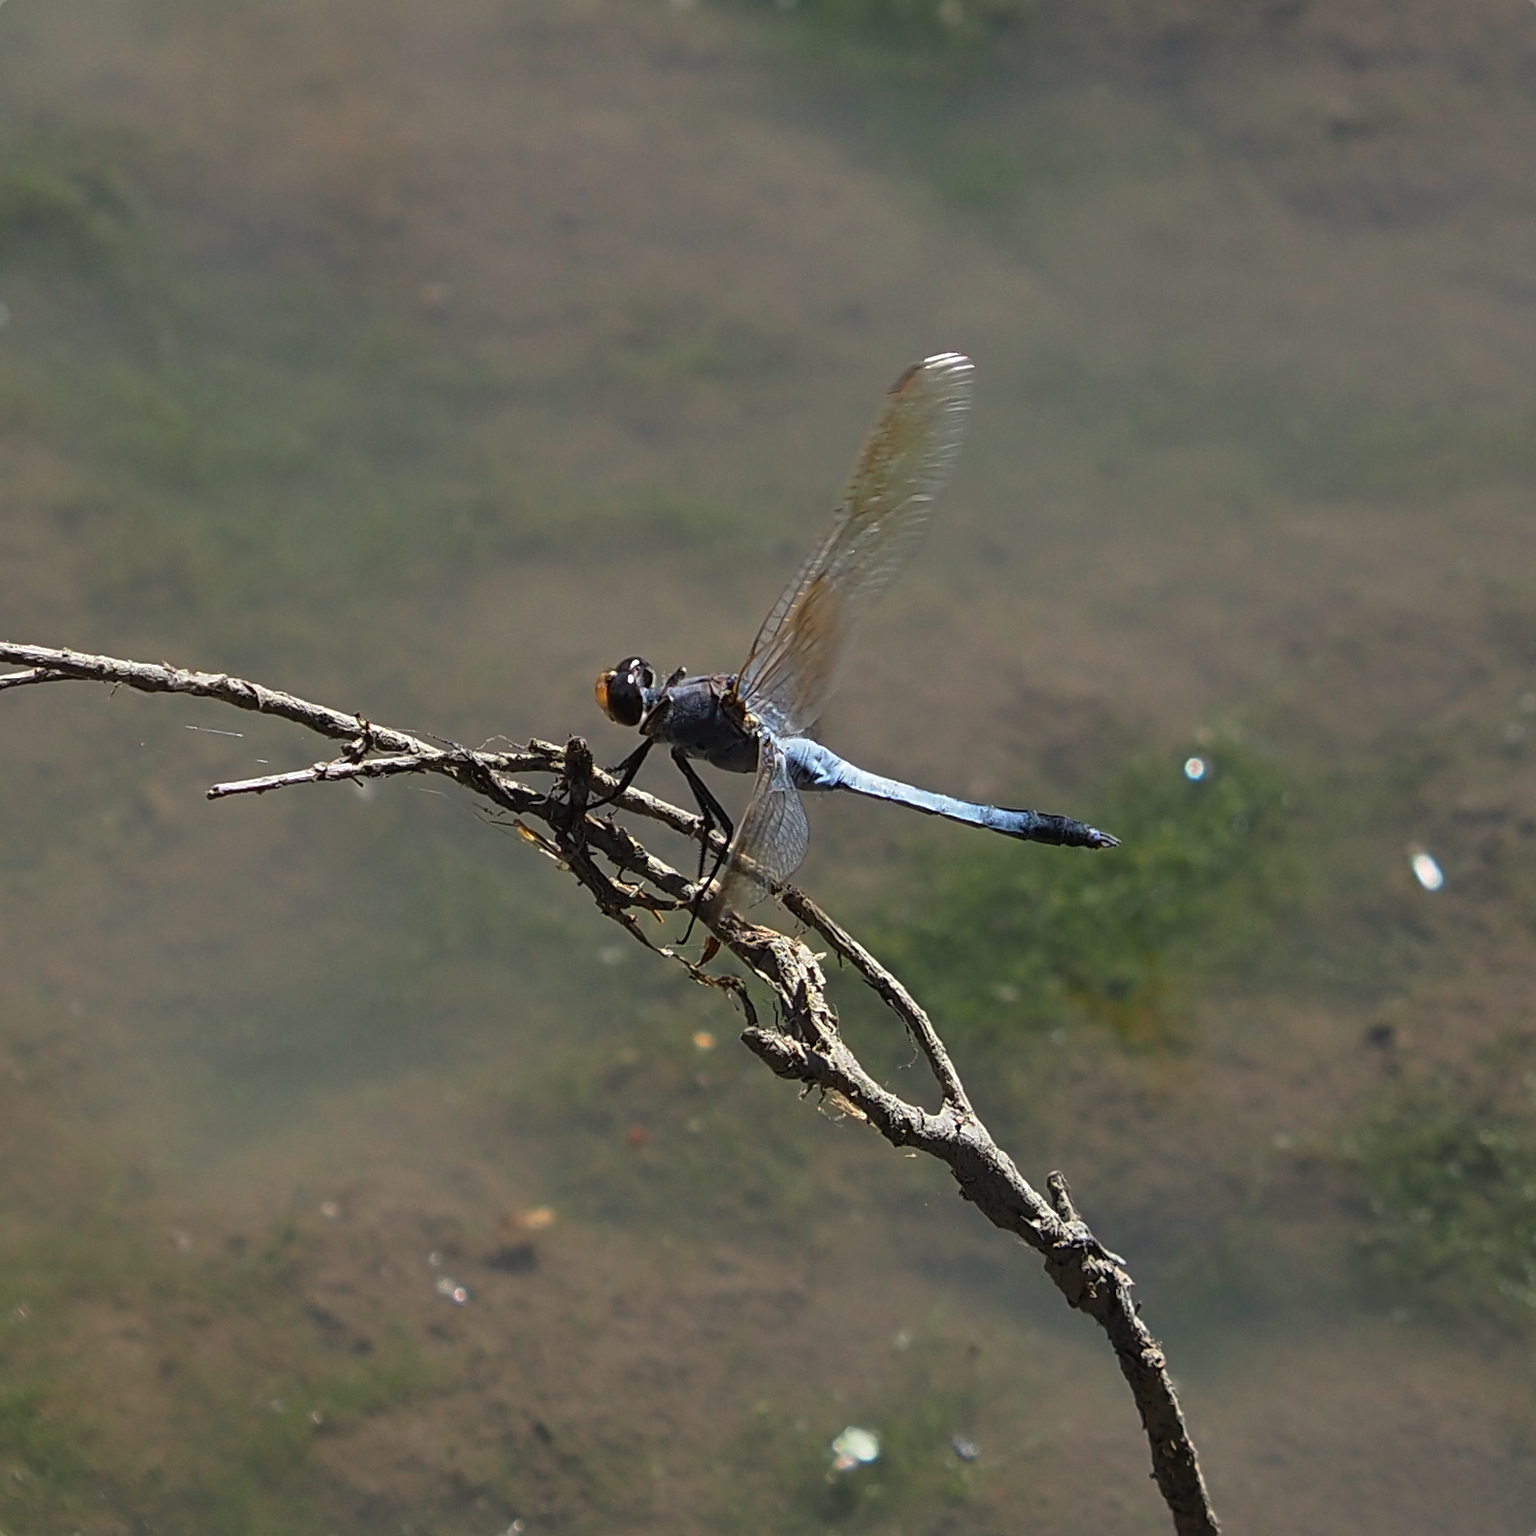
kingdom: Animalia
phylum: Arthropoda
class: Insecta
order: Odonata
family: Libellulidae
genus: Orthetrum
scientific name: Orthetrum caledonicum
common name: Blue skimmer
